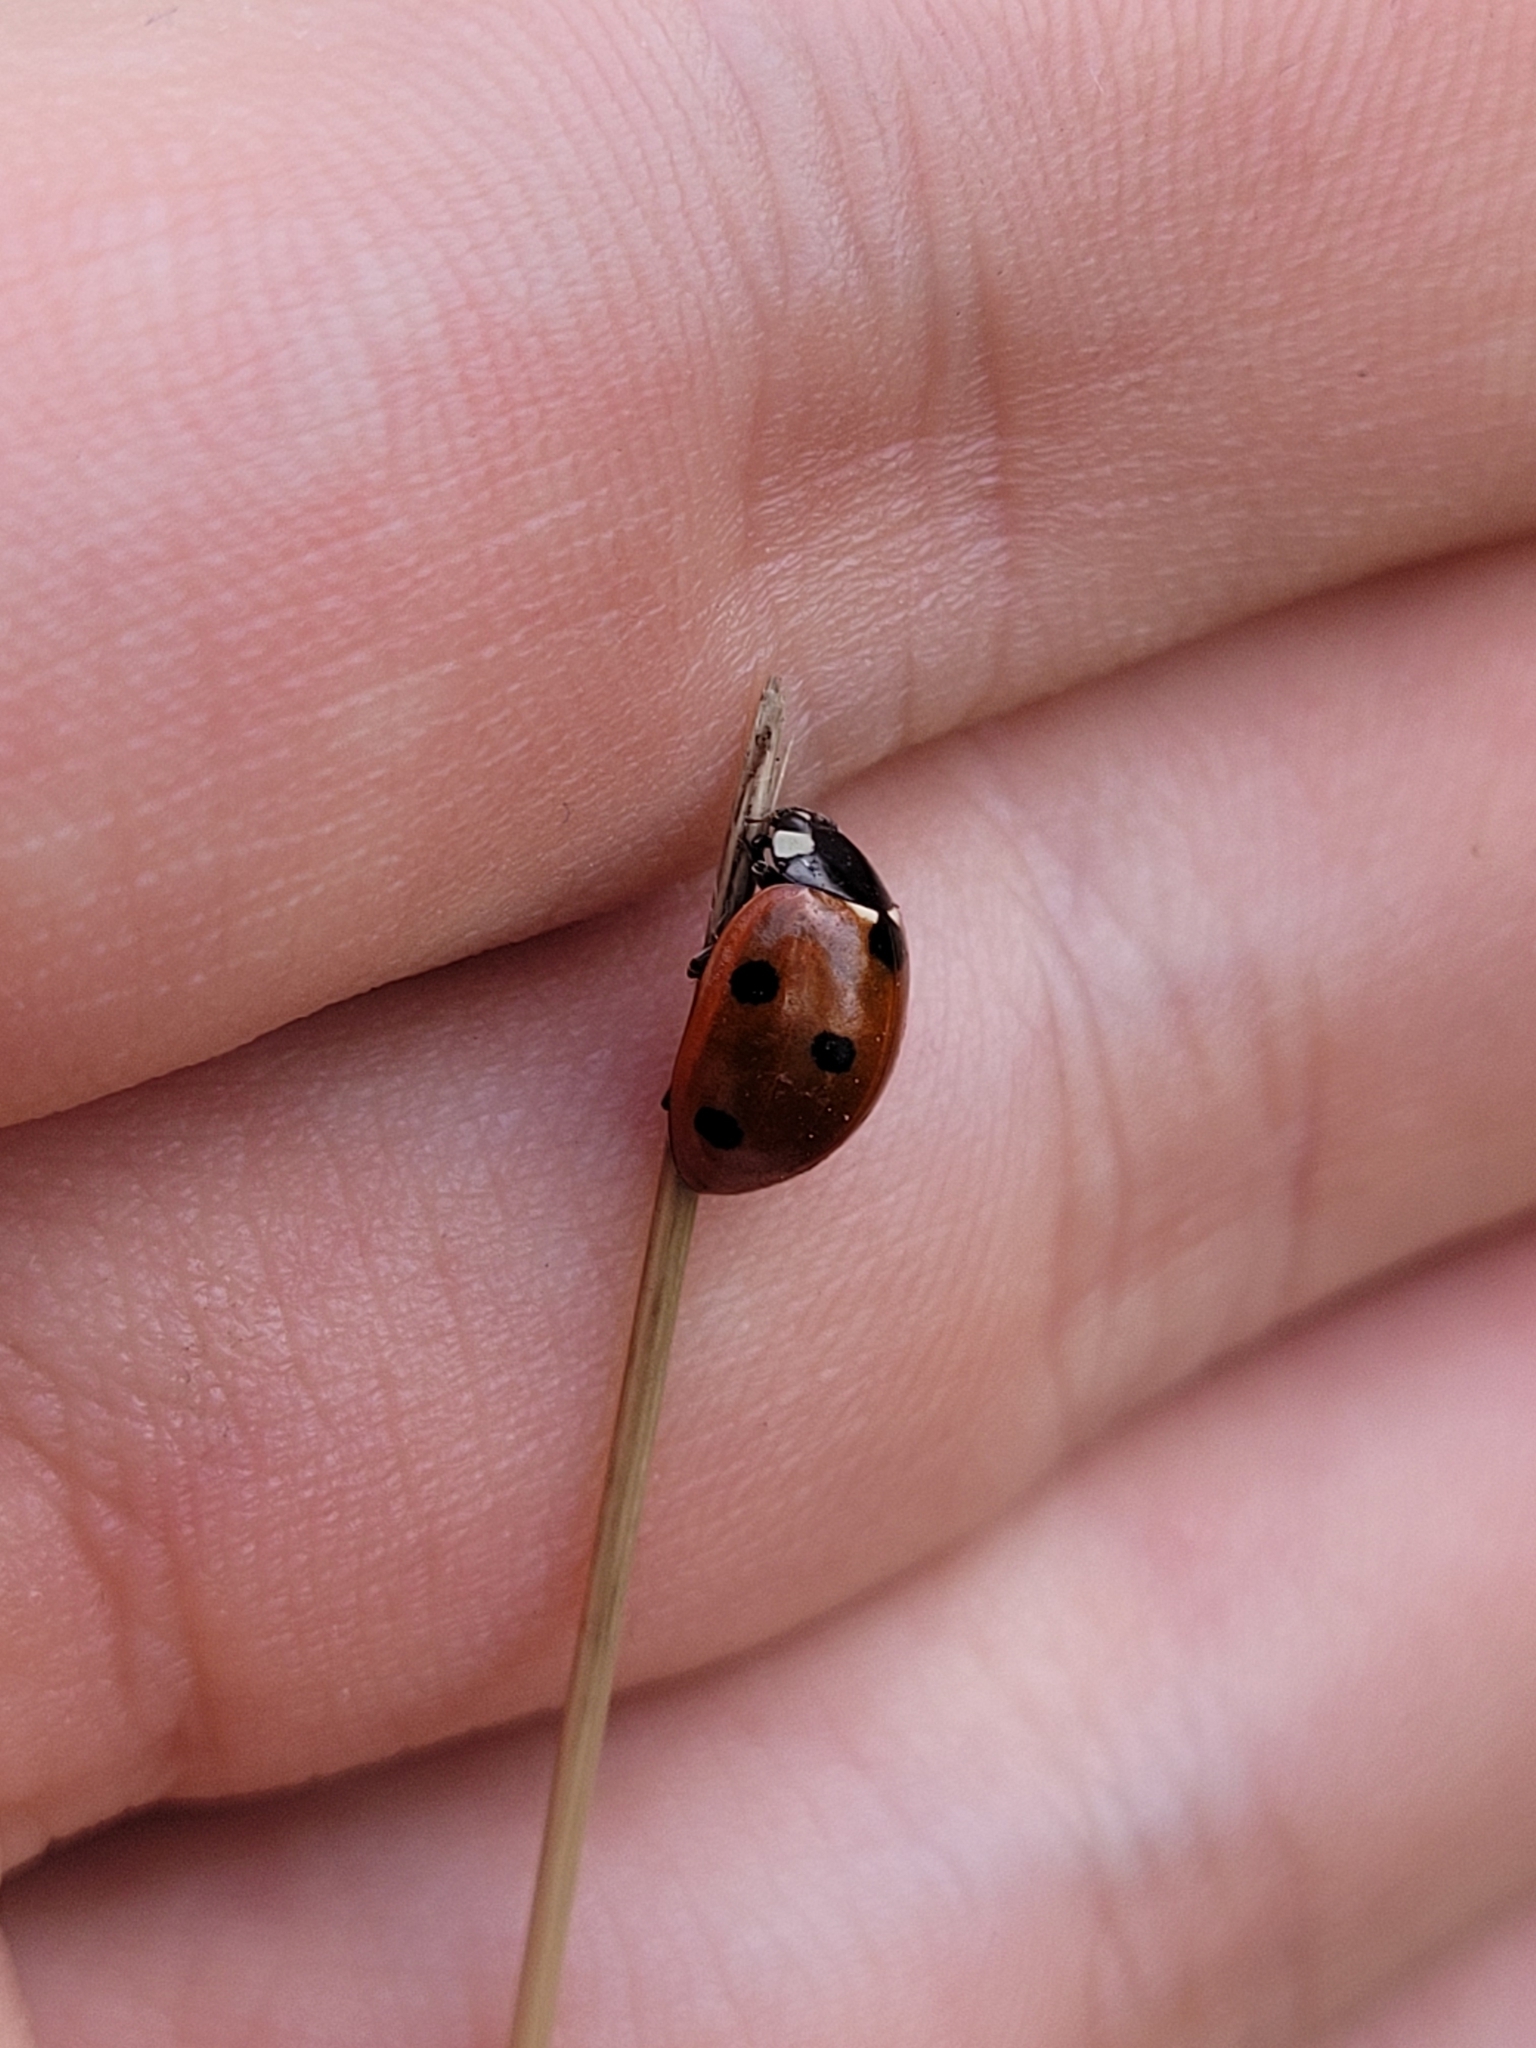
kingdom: Animalia
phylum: Arthropoda
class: Insecta
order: Coleoptera
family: Coccinellidae
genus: Coccinella
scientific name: Coccinella septempunctata
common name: Sevenspotted lady beetle
